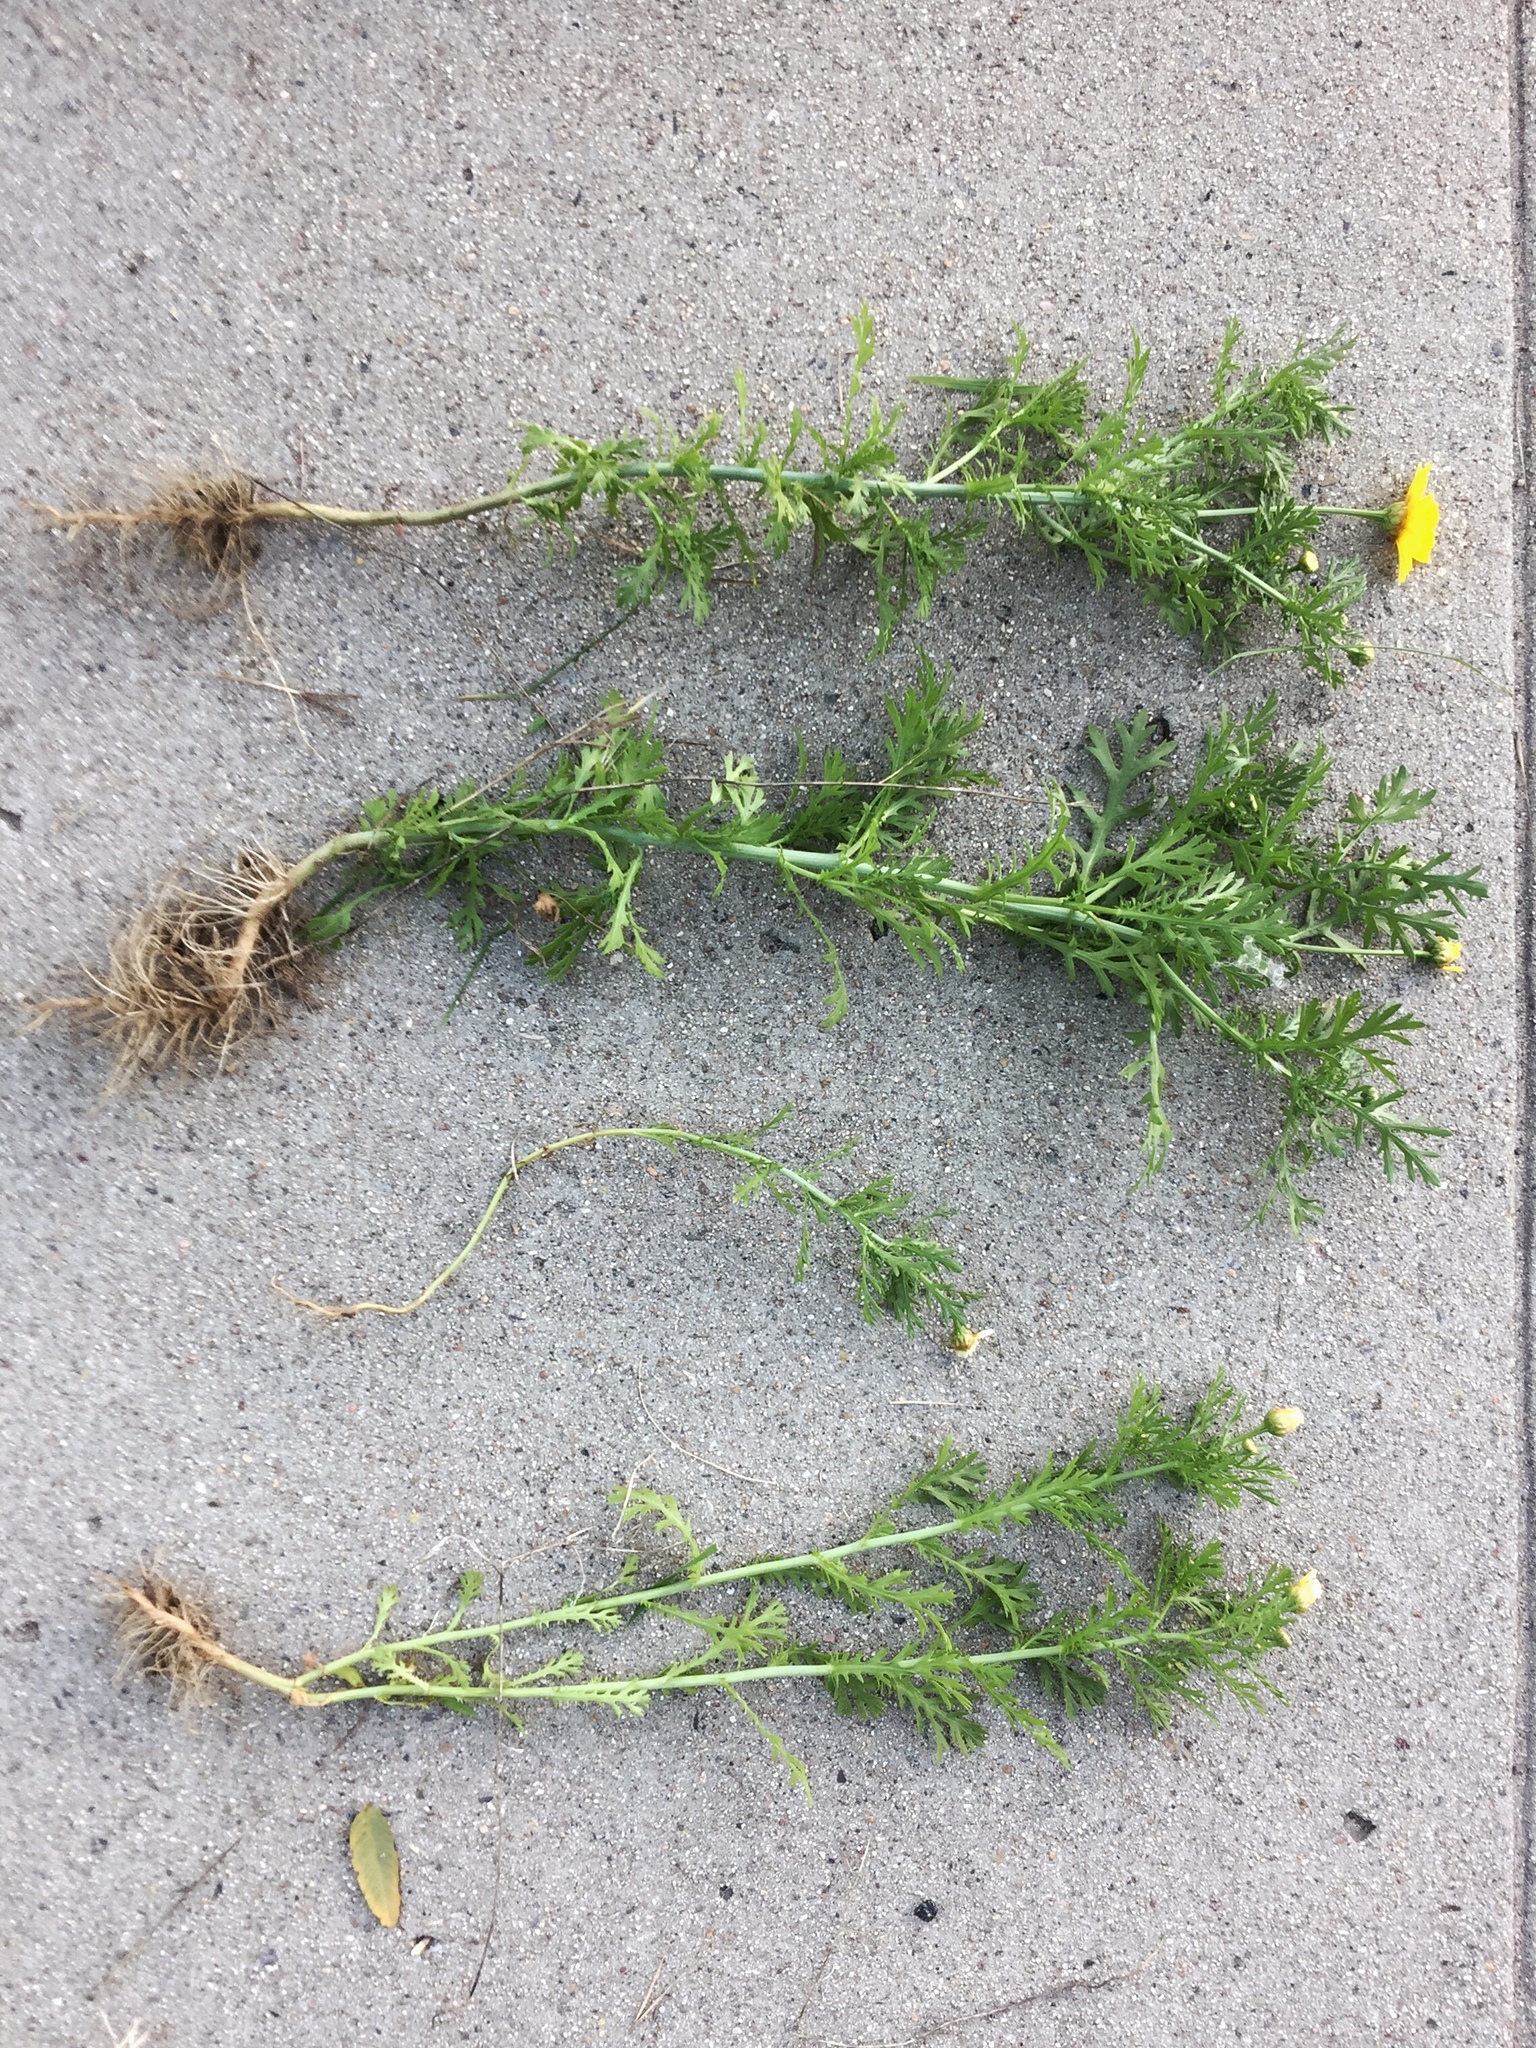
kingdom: Plantae
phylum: Tracheophyta
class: Magnoliopsida
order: Asterales
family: Asteraceae
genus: Glebionis
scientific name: Glebionis coronaria
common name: Crowndaisy
